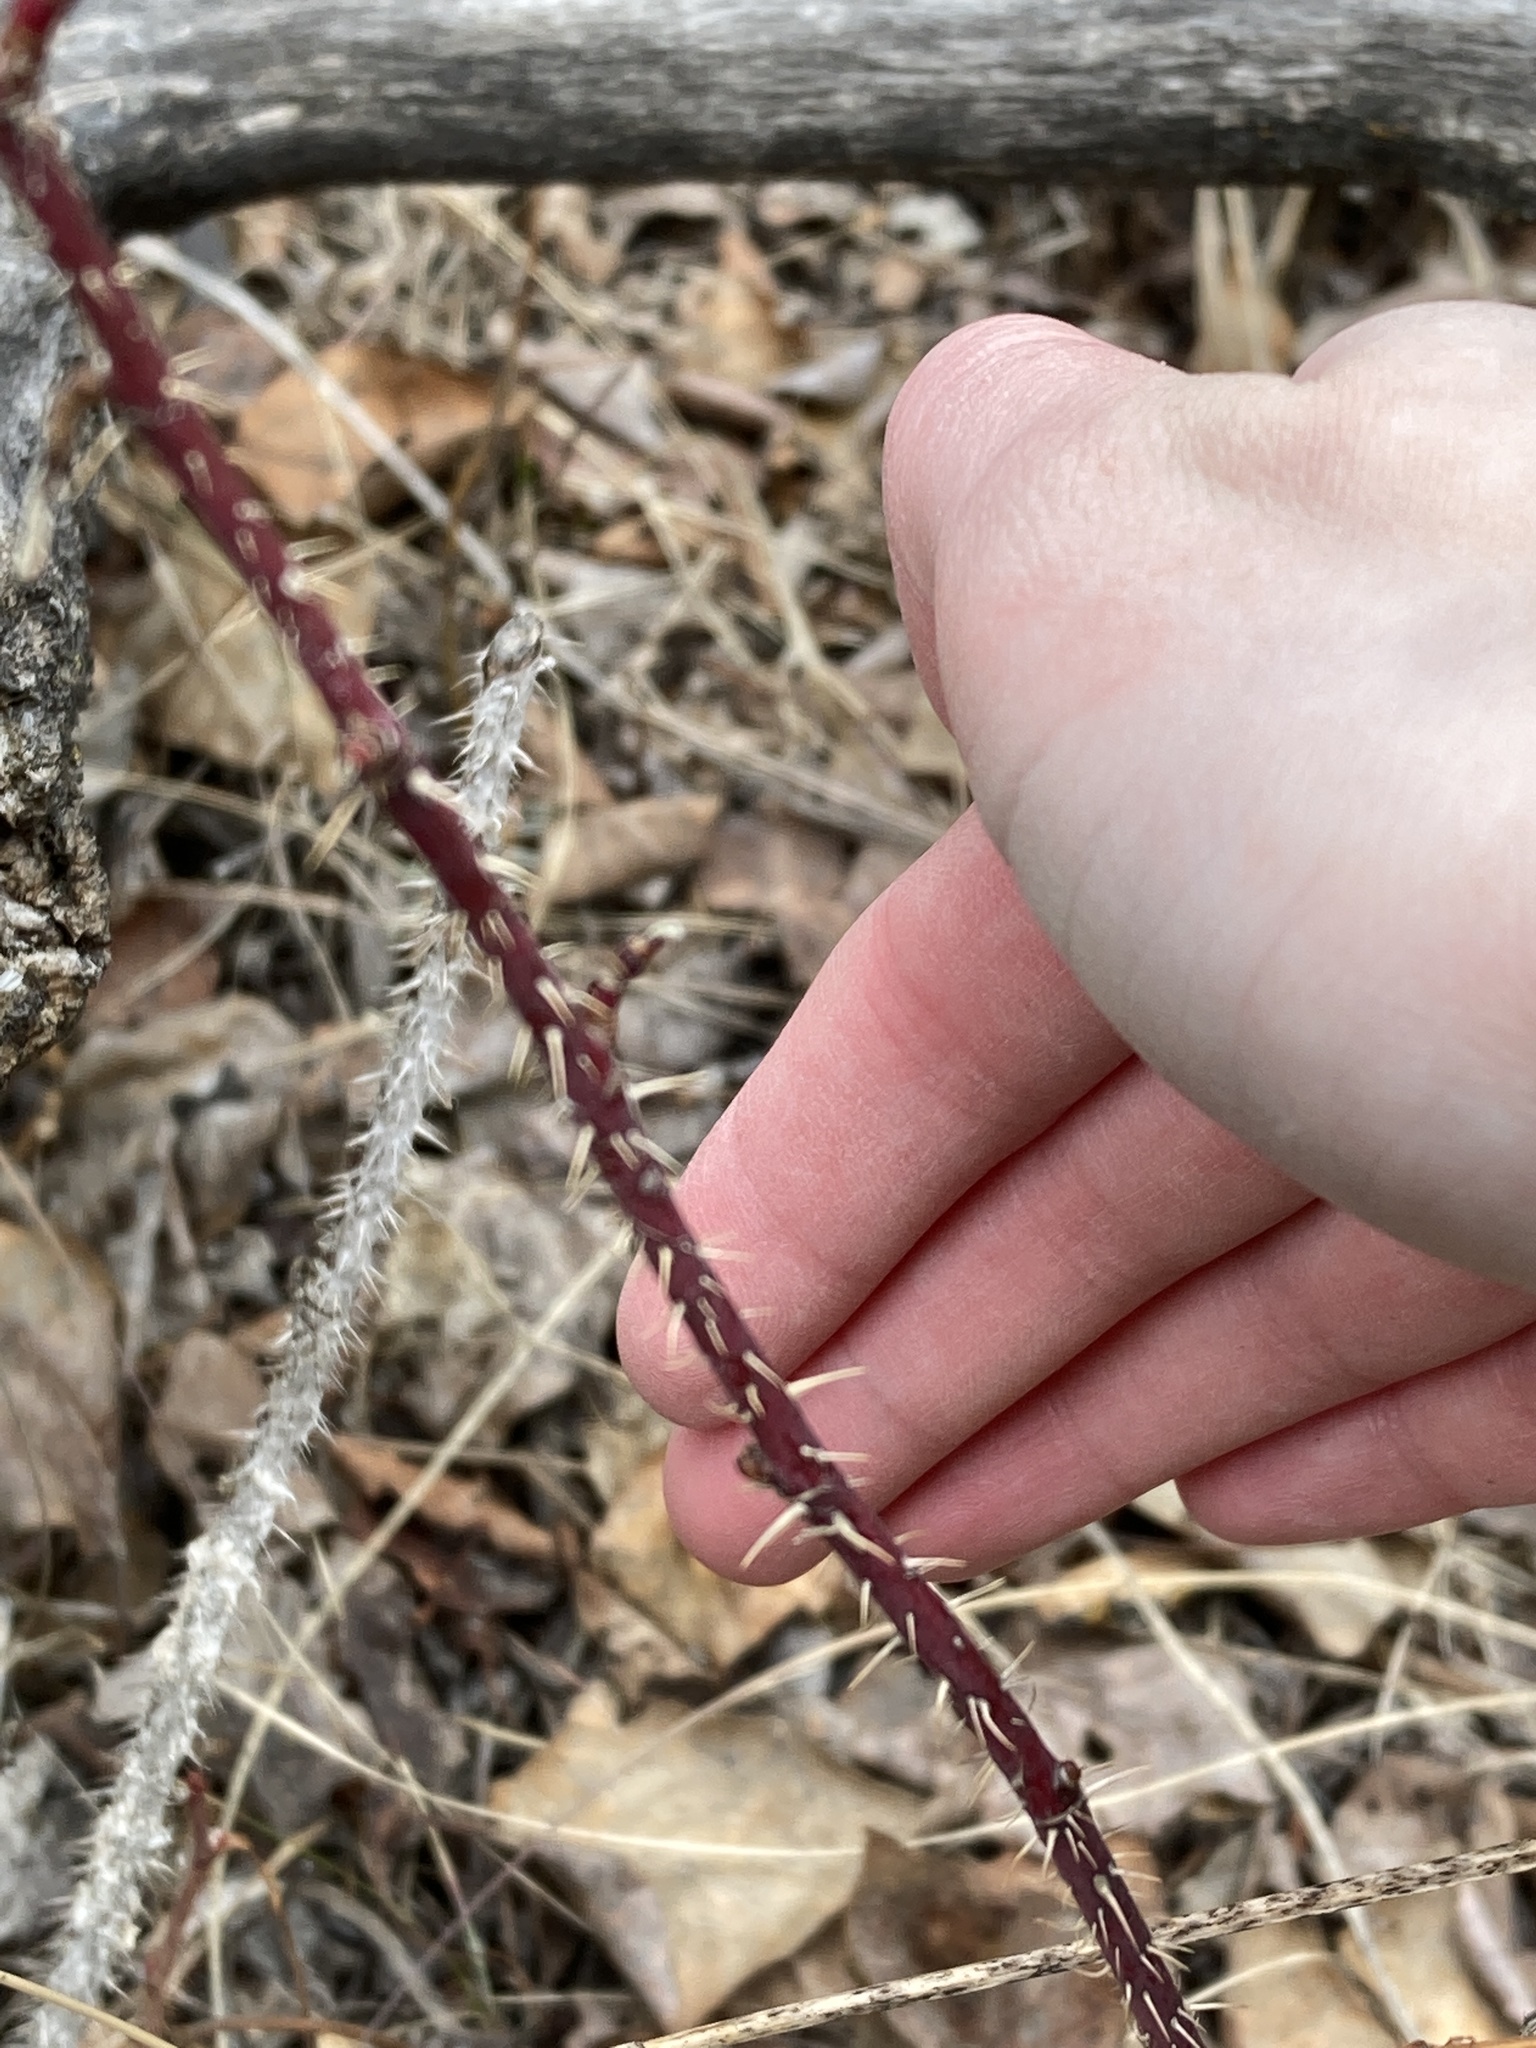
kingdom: Plantae
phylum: Tracheophyta
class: Magnoliopsida
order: Rosales
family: Rosaceae
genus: Rosa
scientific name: Rosa woodsii
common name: Woods's rose
